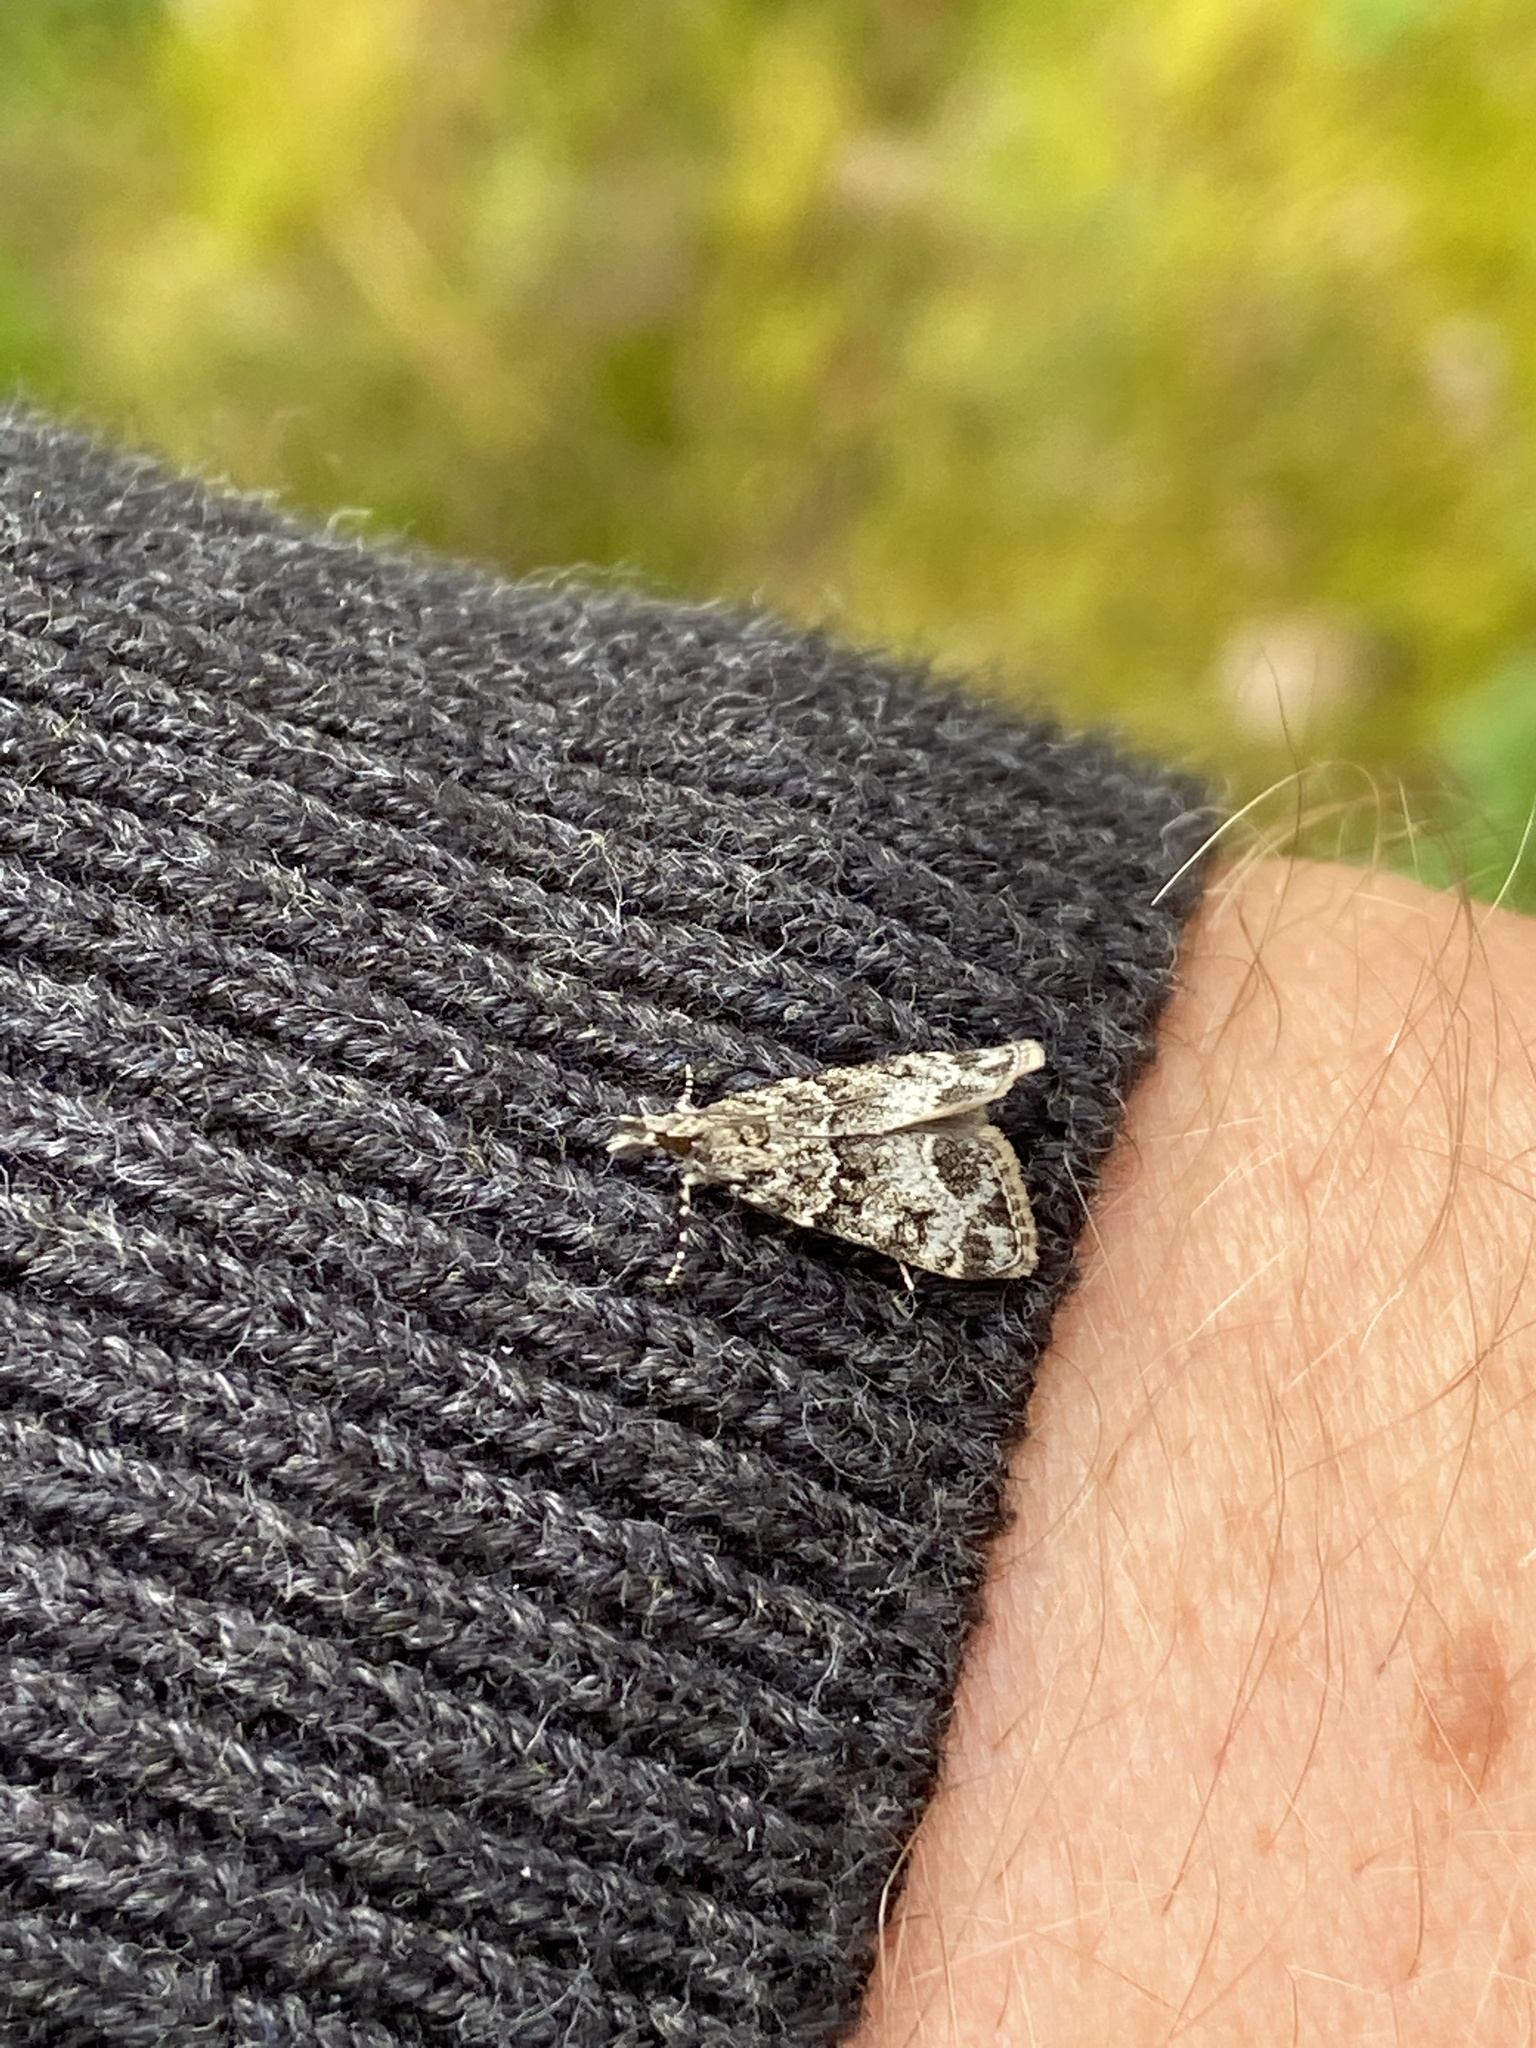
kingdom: Animalia
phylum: Arthropoda
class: Insecta
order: Lepidoptera
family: Crambidae
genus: Eudonia
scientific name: Eudonia lacustrata
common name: Little grey
